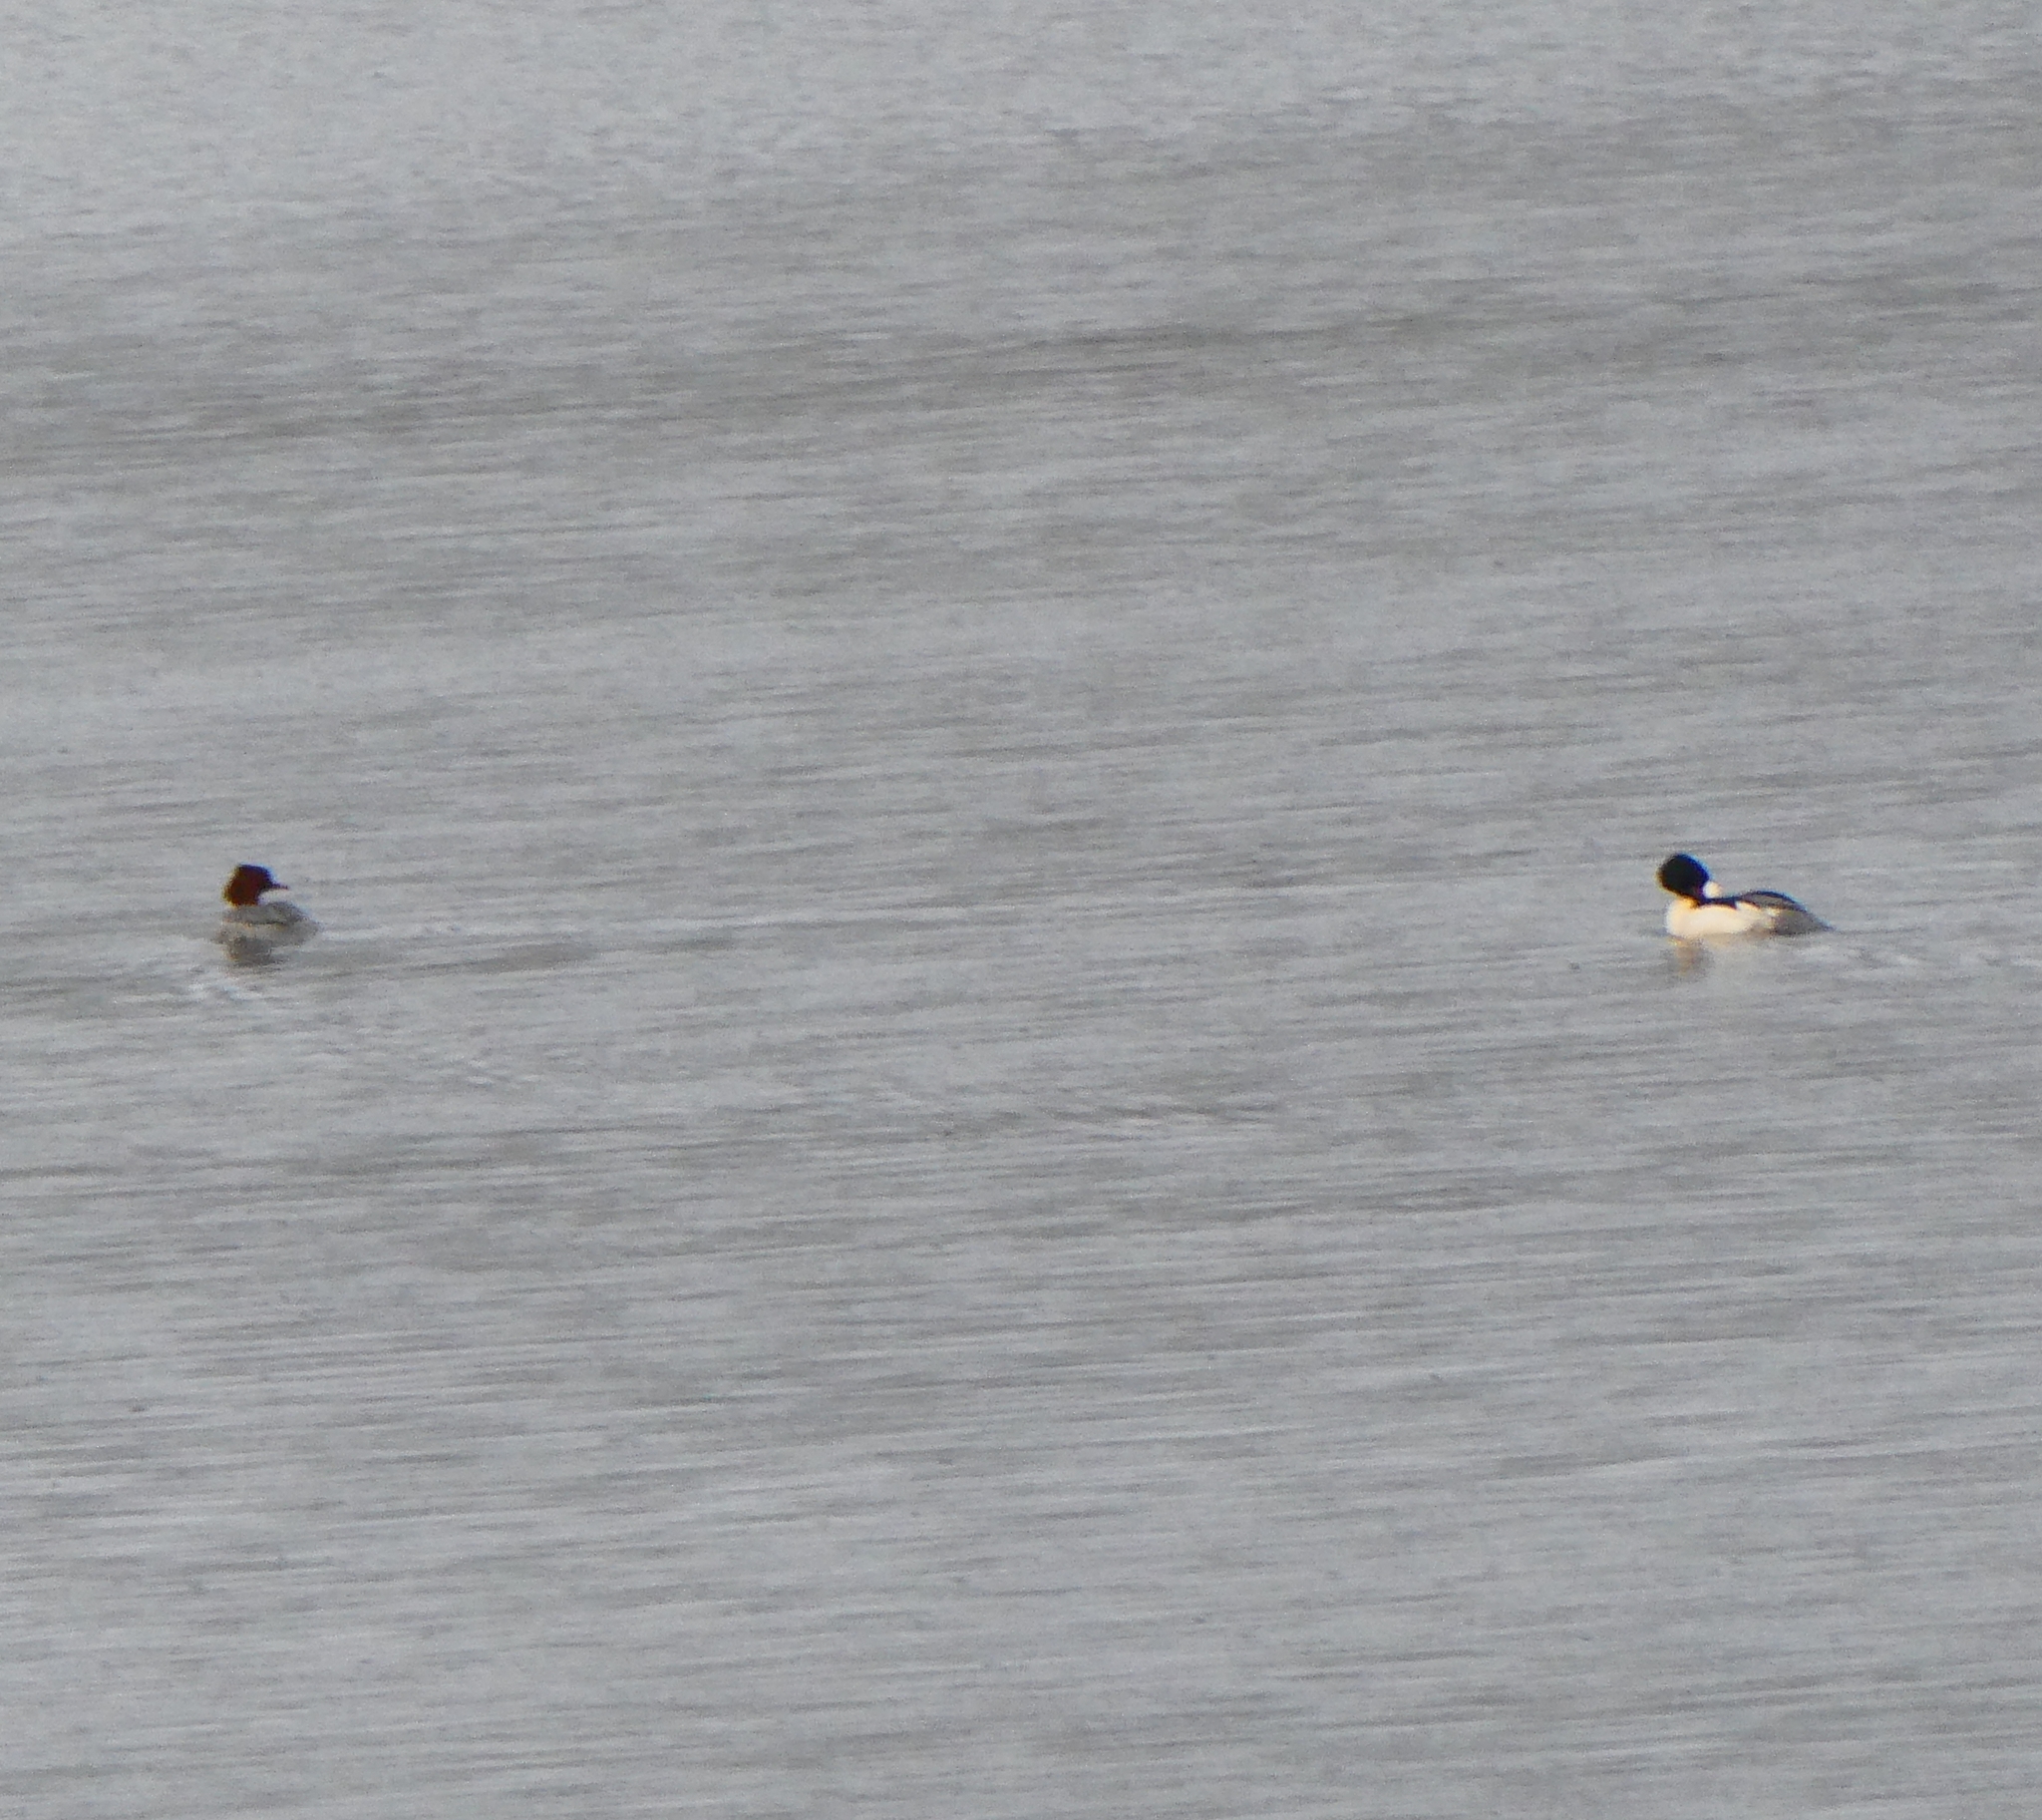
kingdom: Animalia
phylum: Chordata
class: Aves
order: Anseriformes
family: Anatidae
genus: Mergus
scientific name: Mergus merganser
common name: Common merganser
